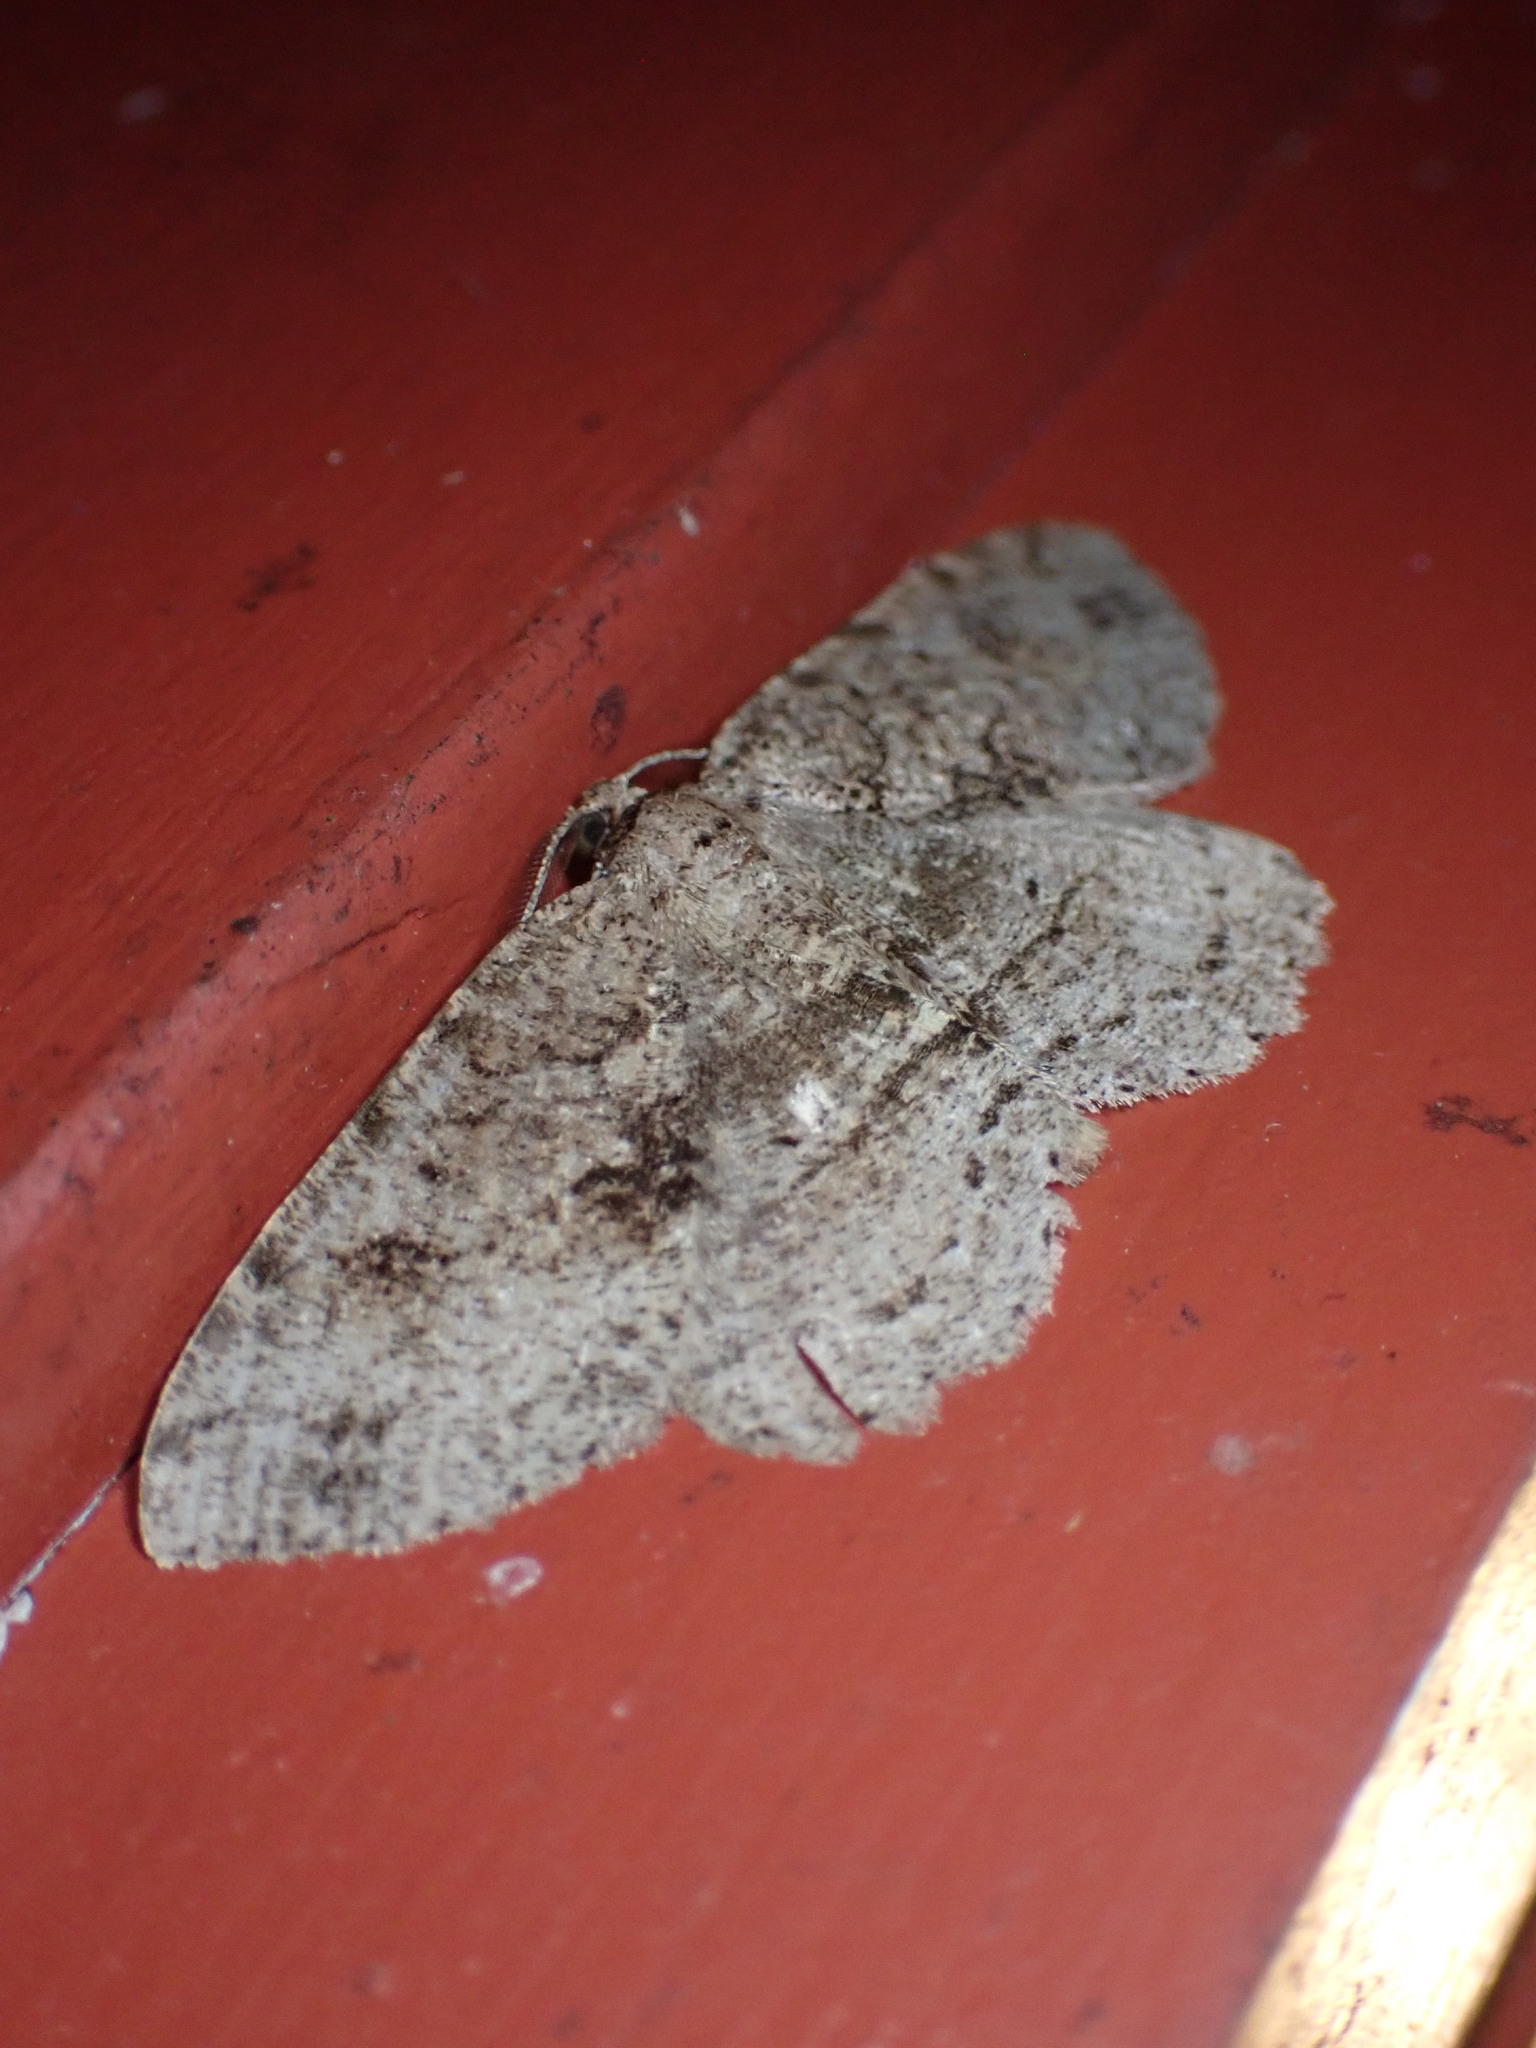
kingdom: Animalia
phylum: Arthropoda
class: Insecta
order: Lepidoptera
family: Geometridae
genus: Melanolophia
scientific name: Melanolophia canadaria
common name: Canadian melanolophia
